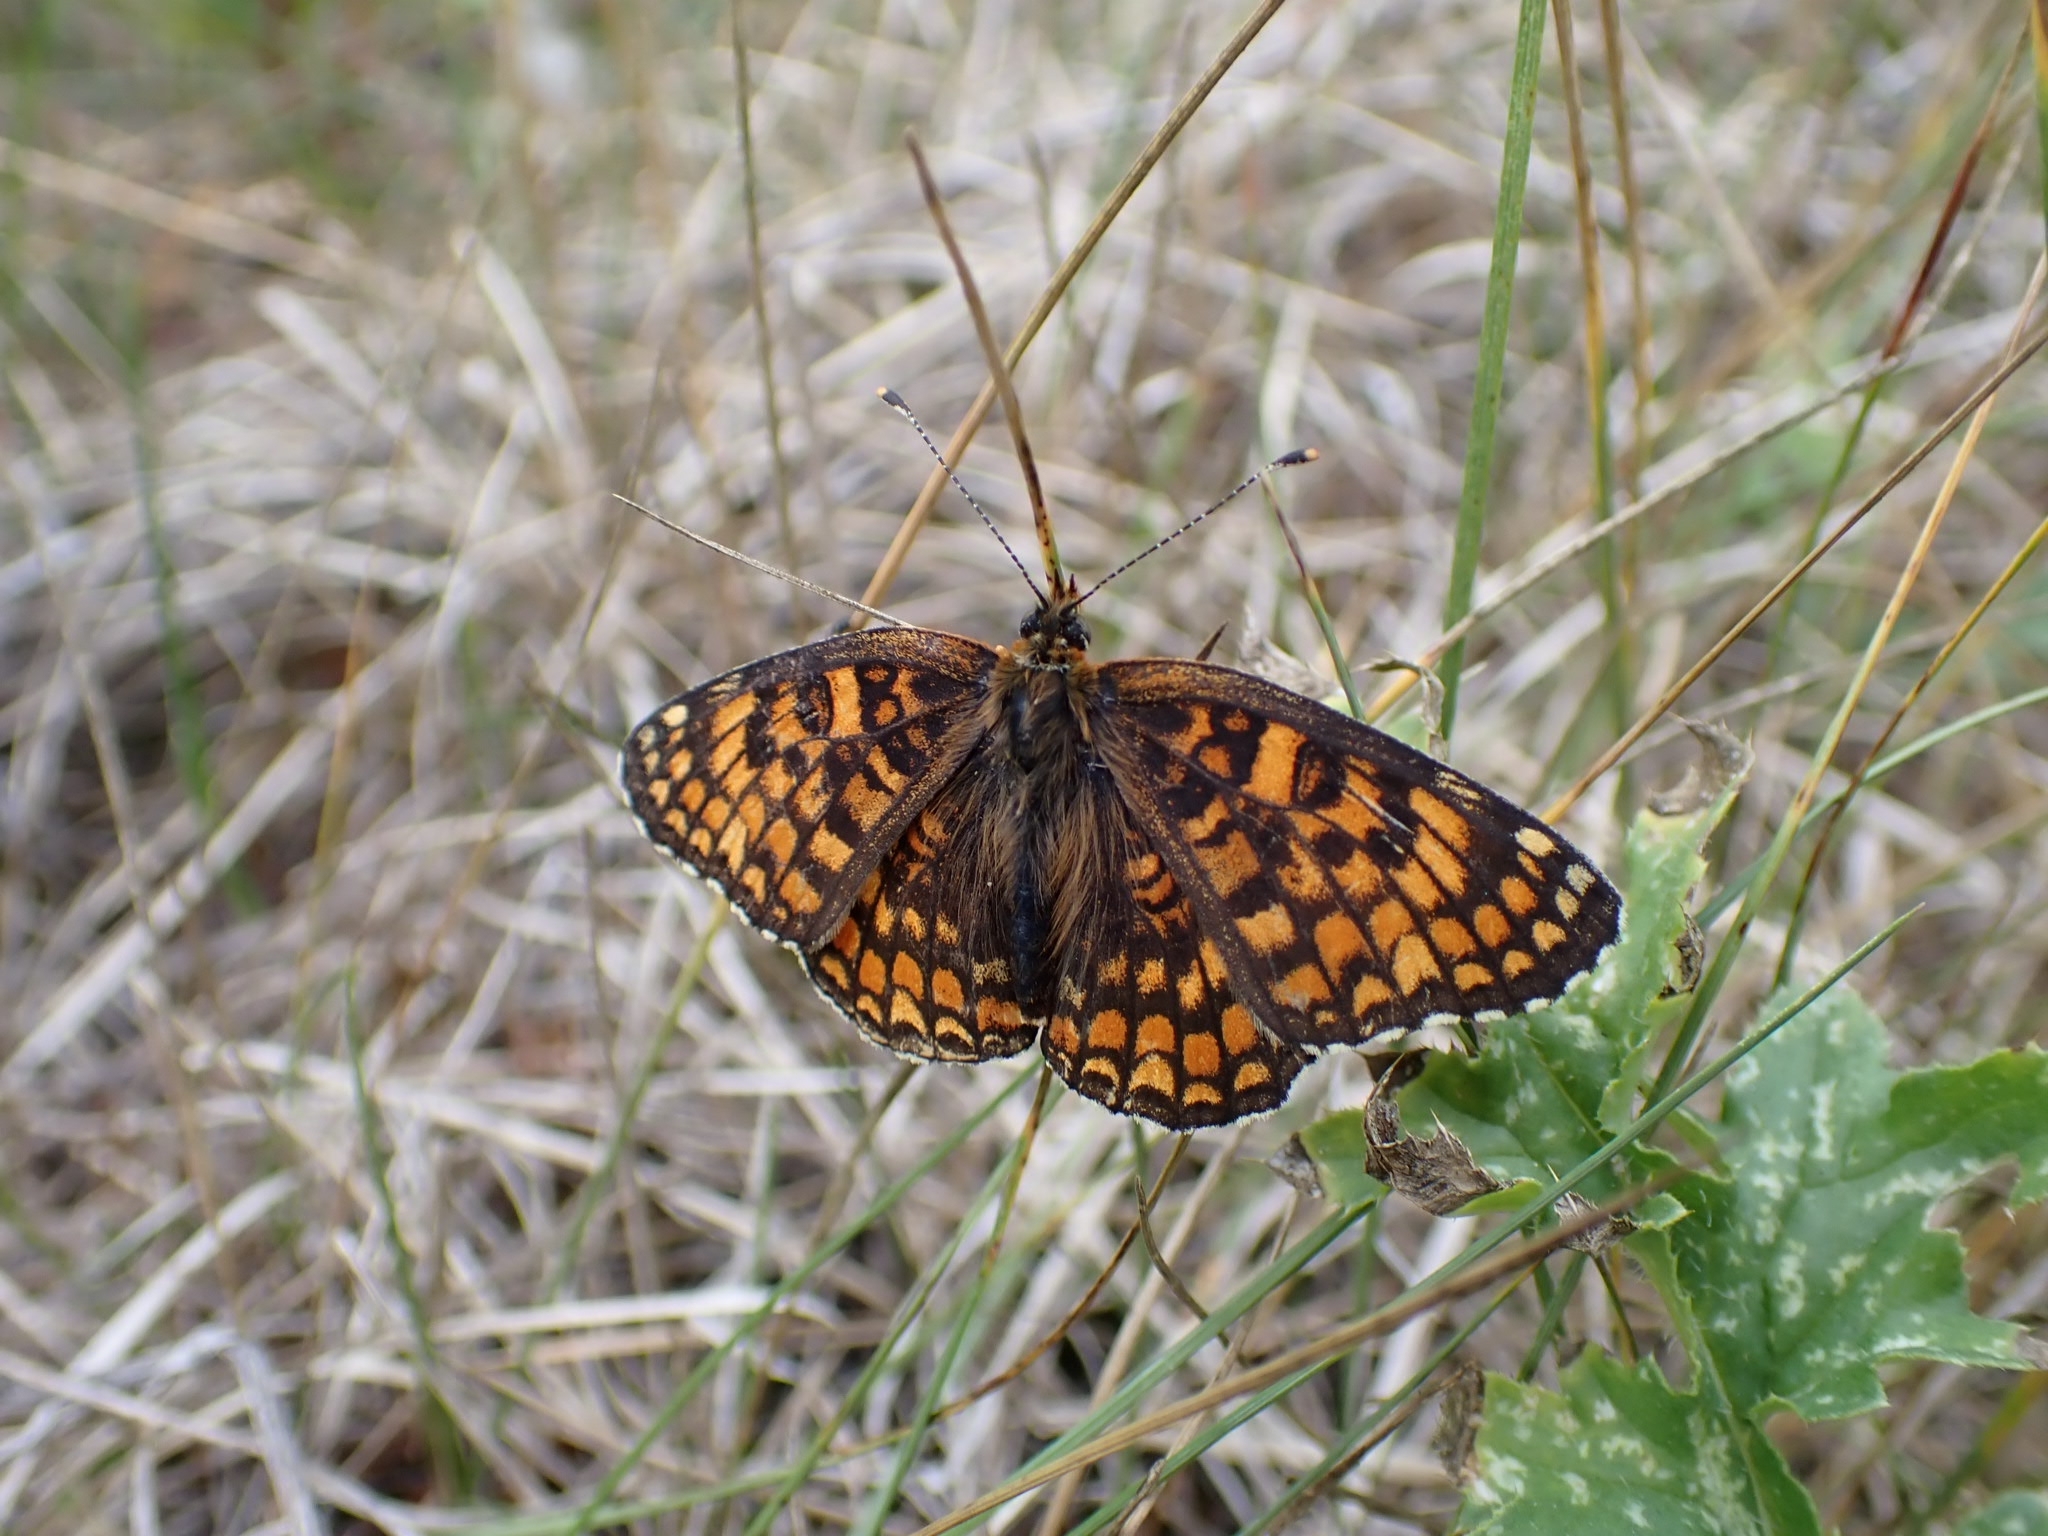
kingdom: Animalia
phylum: Arthropoda
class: Insecta
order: Lepidoptera
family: Nymphalidae
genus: Melitaea
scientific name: Melitaea phoebe
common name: Knapweed fritillary
